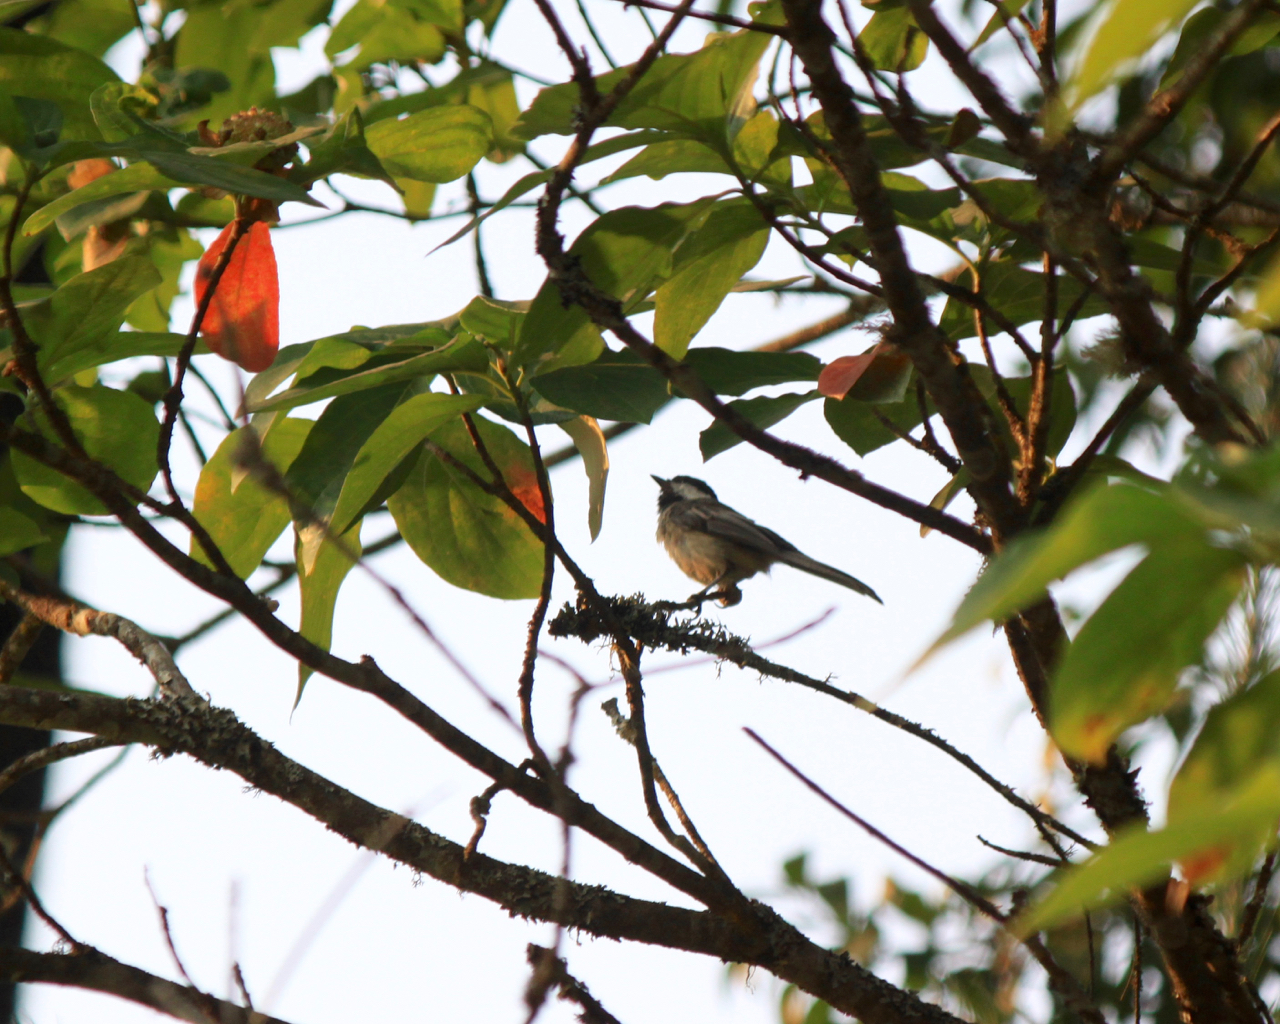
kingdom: Animalia
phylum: Chordata
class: Aves
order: Passeriformes
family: Paridae
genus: Poecile
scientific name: Poecile atricapillus
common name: Black-capped chickadee
